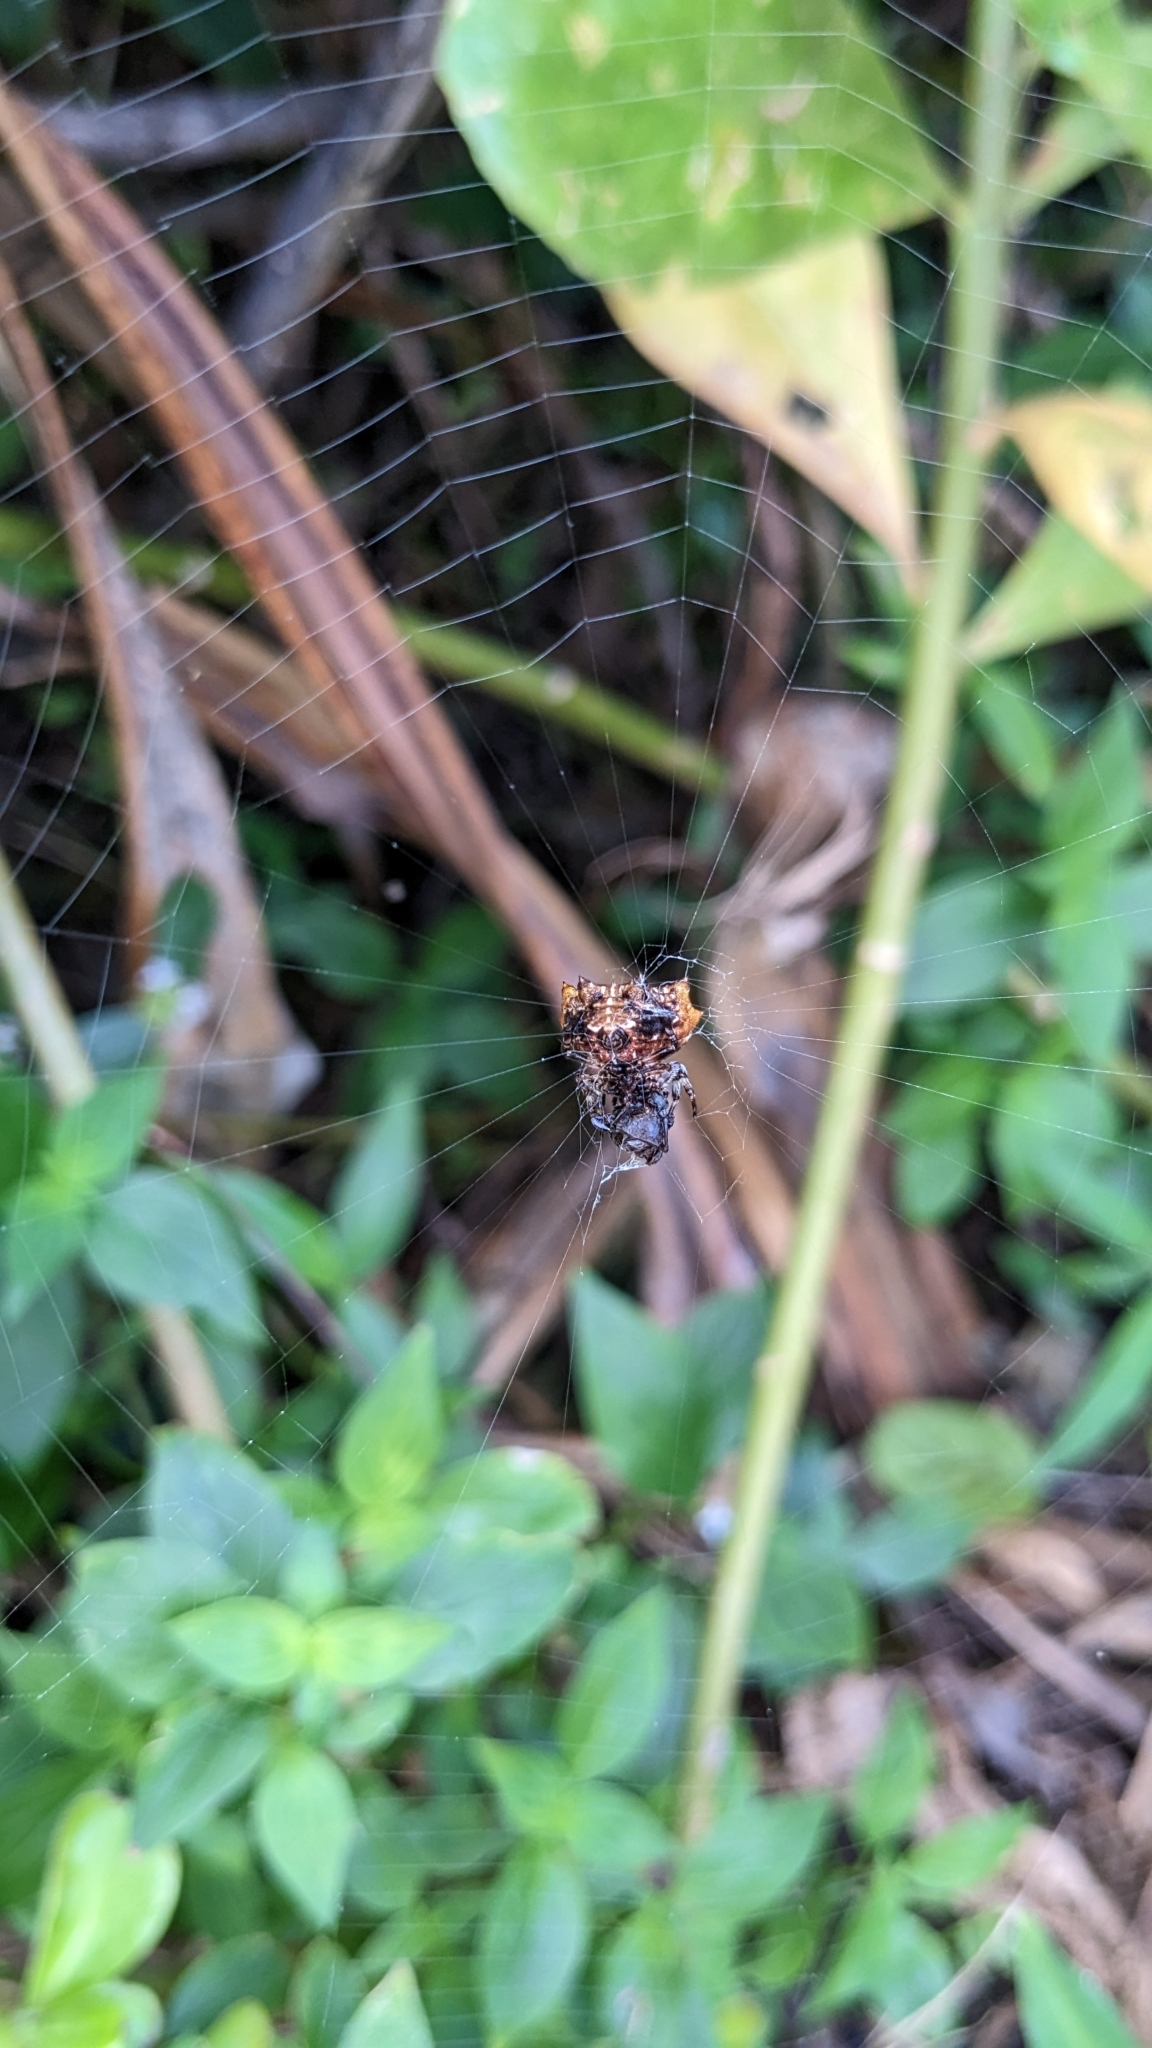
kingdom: Animalia
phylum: Arthropoda
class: Arachnida
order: Araneae
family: Araneidae
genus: Thelacantha
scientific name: Thelacantha brevispina
